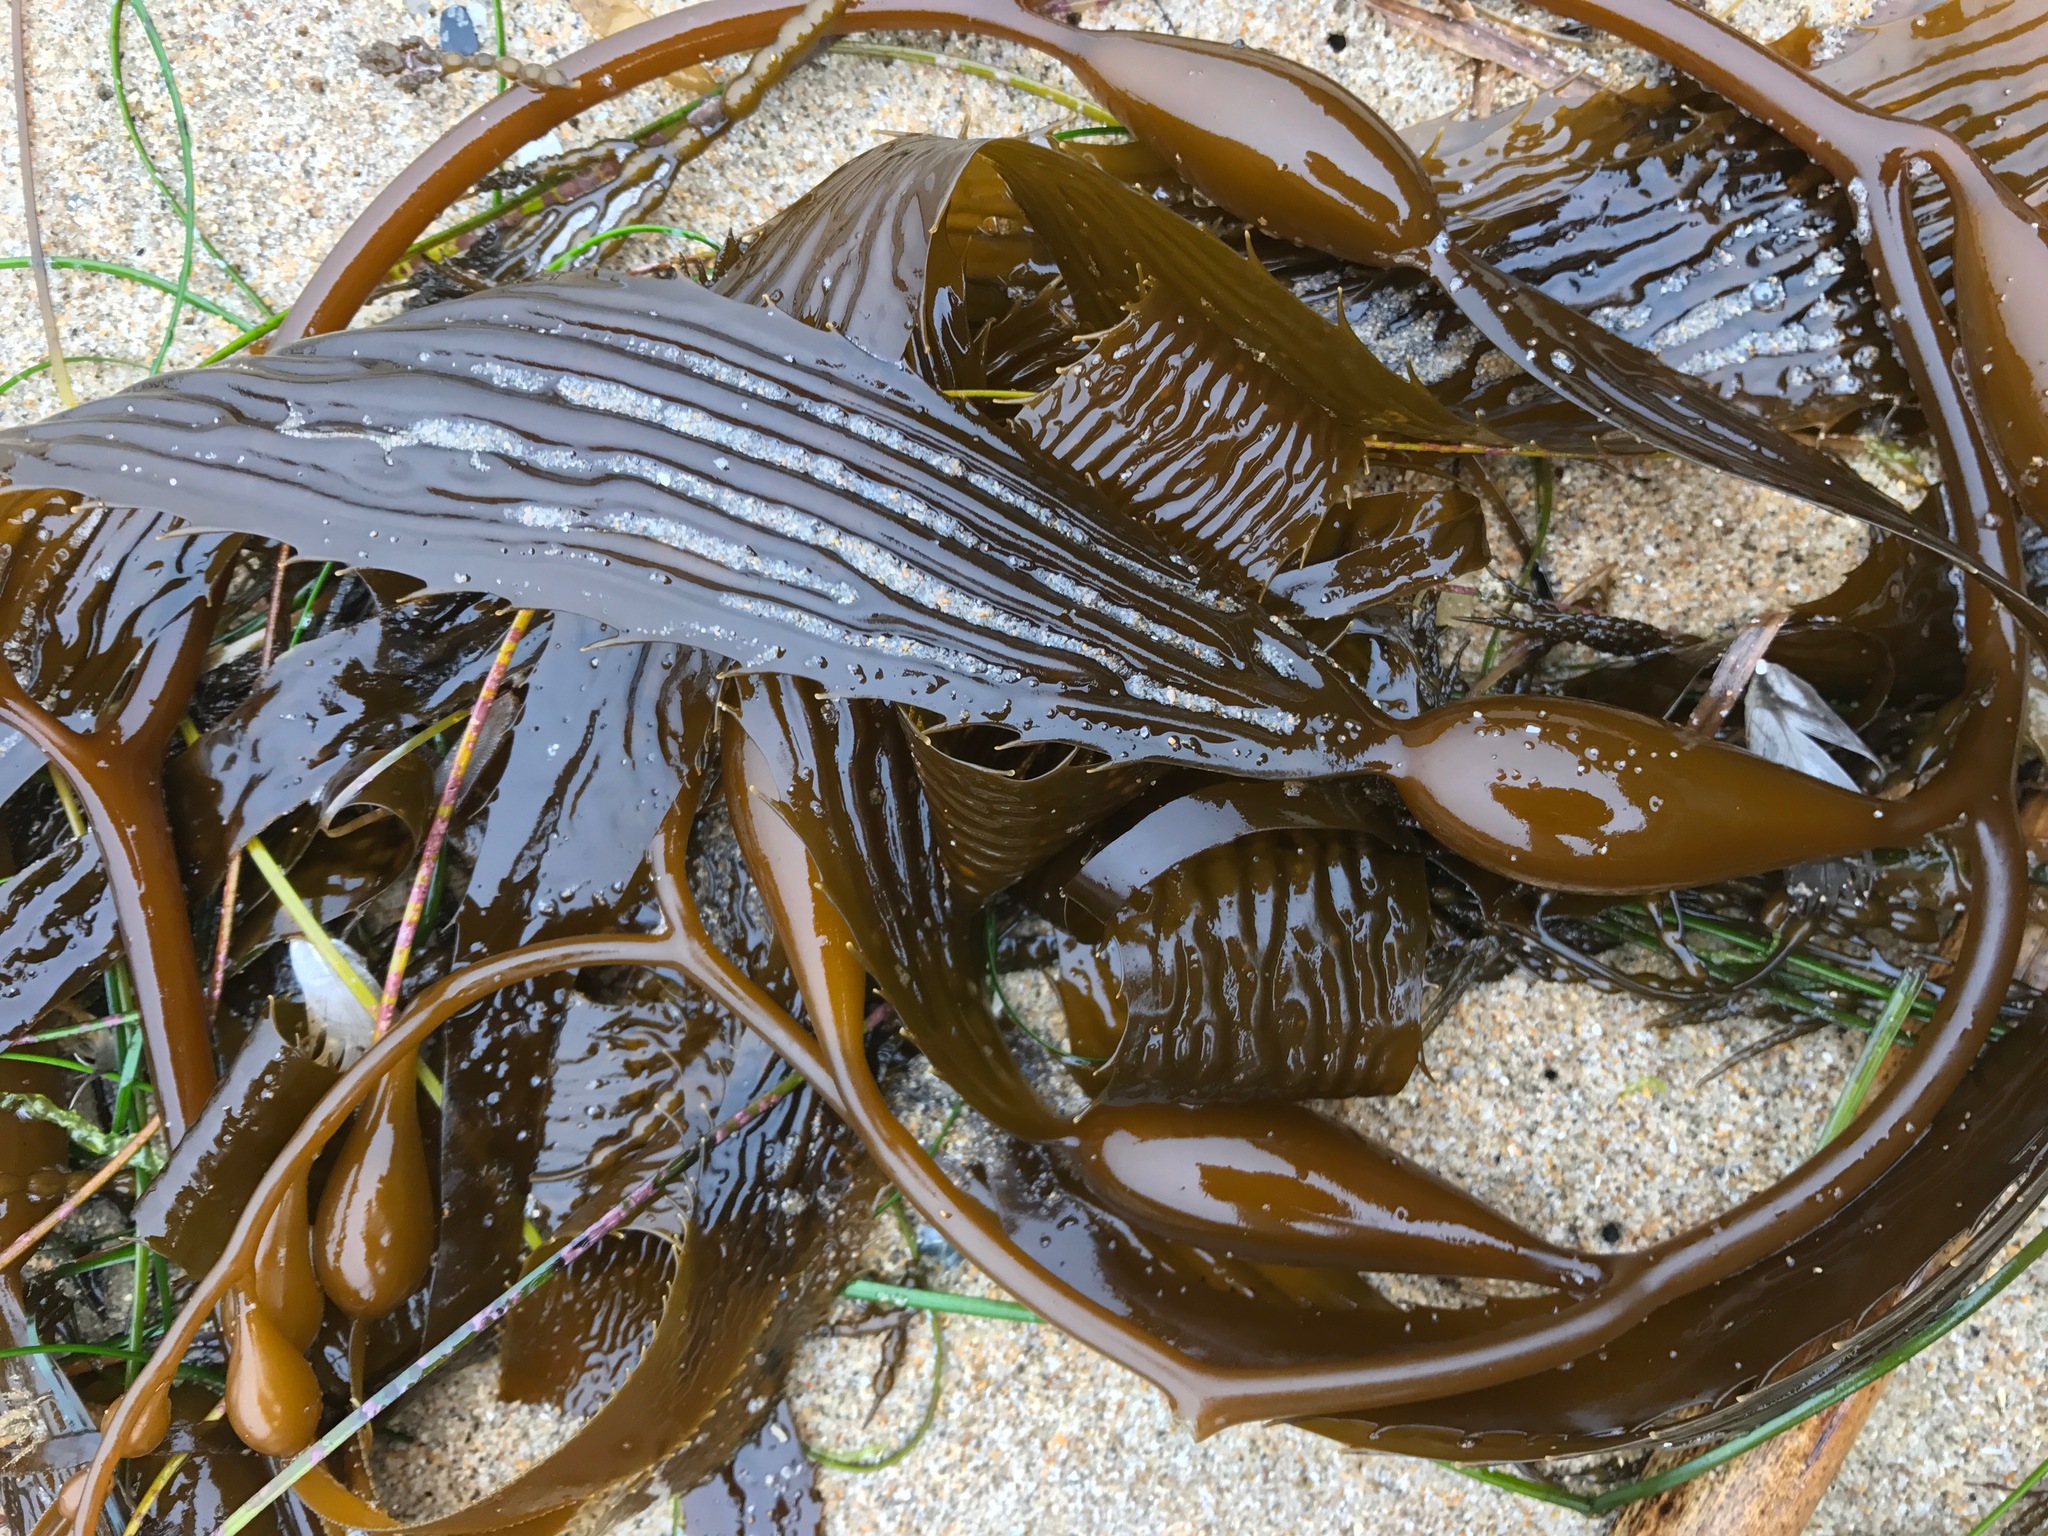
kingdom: Chromista
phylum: Ochrophyta
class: Phaeophyceae
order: Laminariales
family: Laminariaceae
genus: Macrocystis
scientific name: Macrocystis pyrifera
